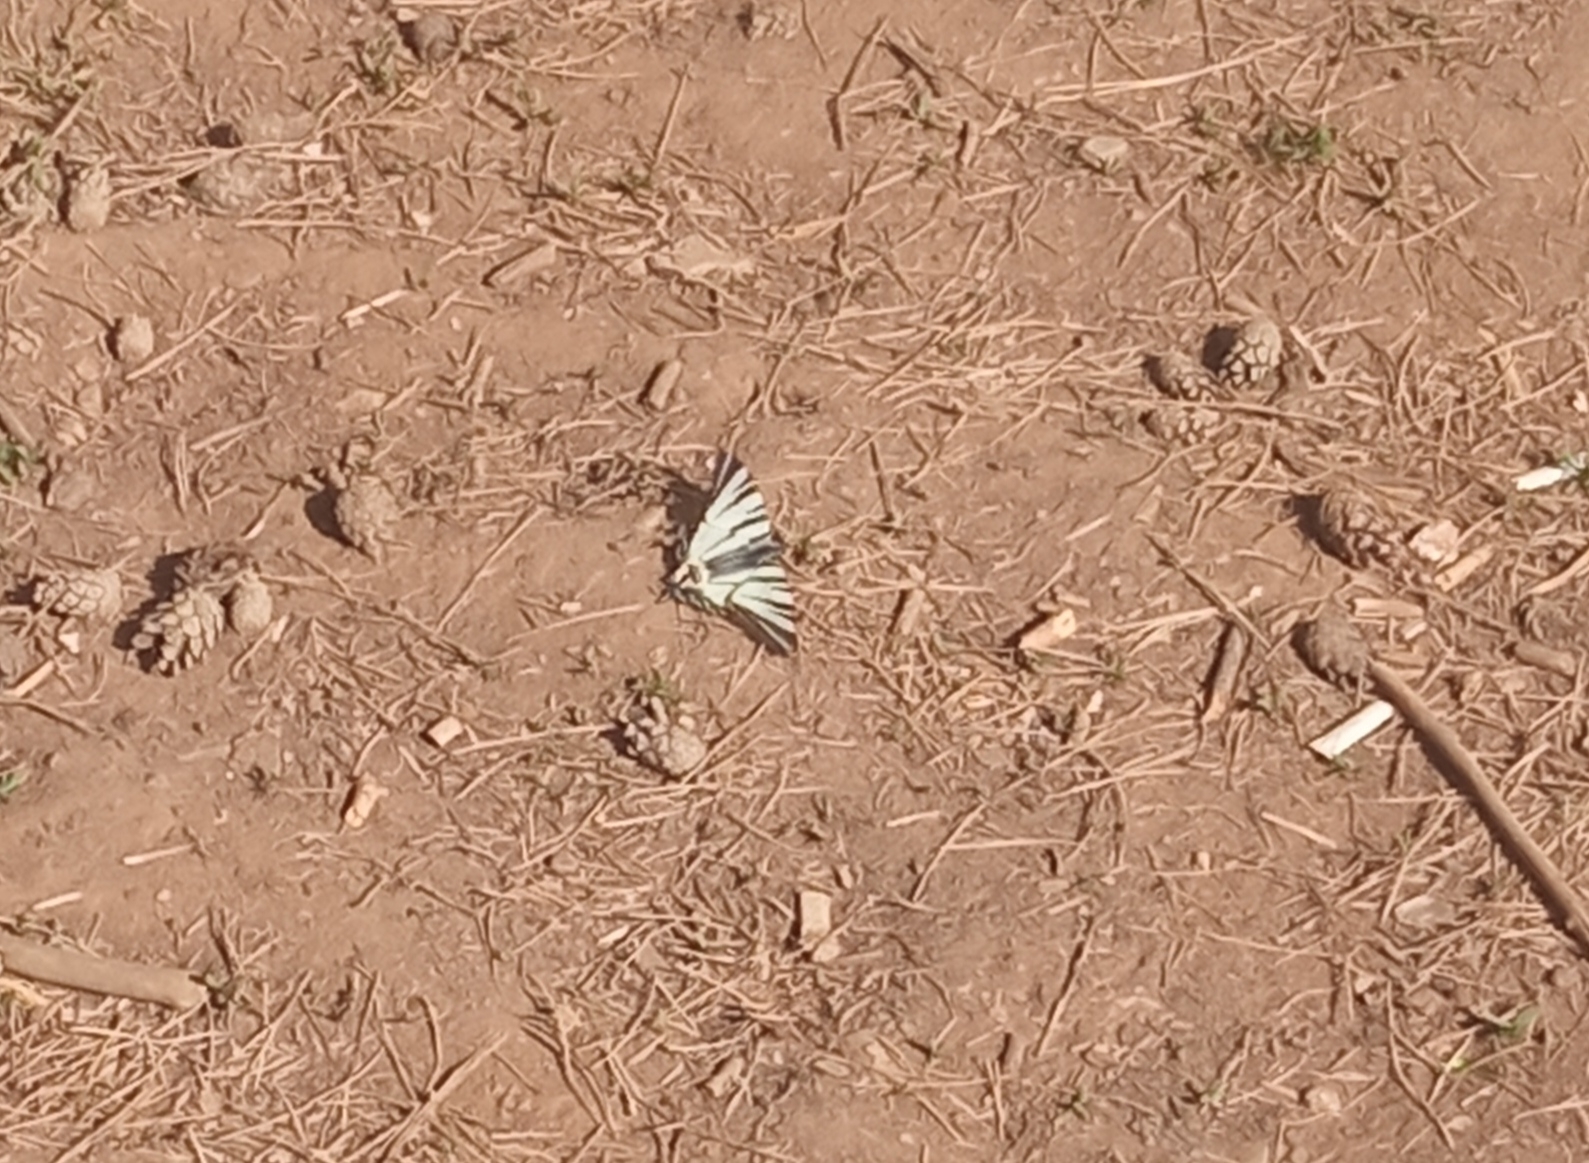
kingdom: Animalia
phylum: Arthropoda
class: Insecta
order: Lepidoptera
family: Papilionidae
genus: Iphiclides
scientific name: Iphiclides podalirius
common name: Scarce swallowtail
